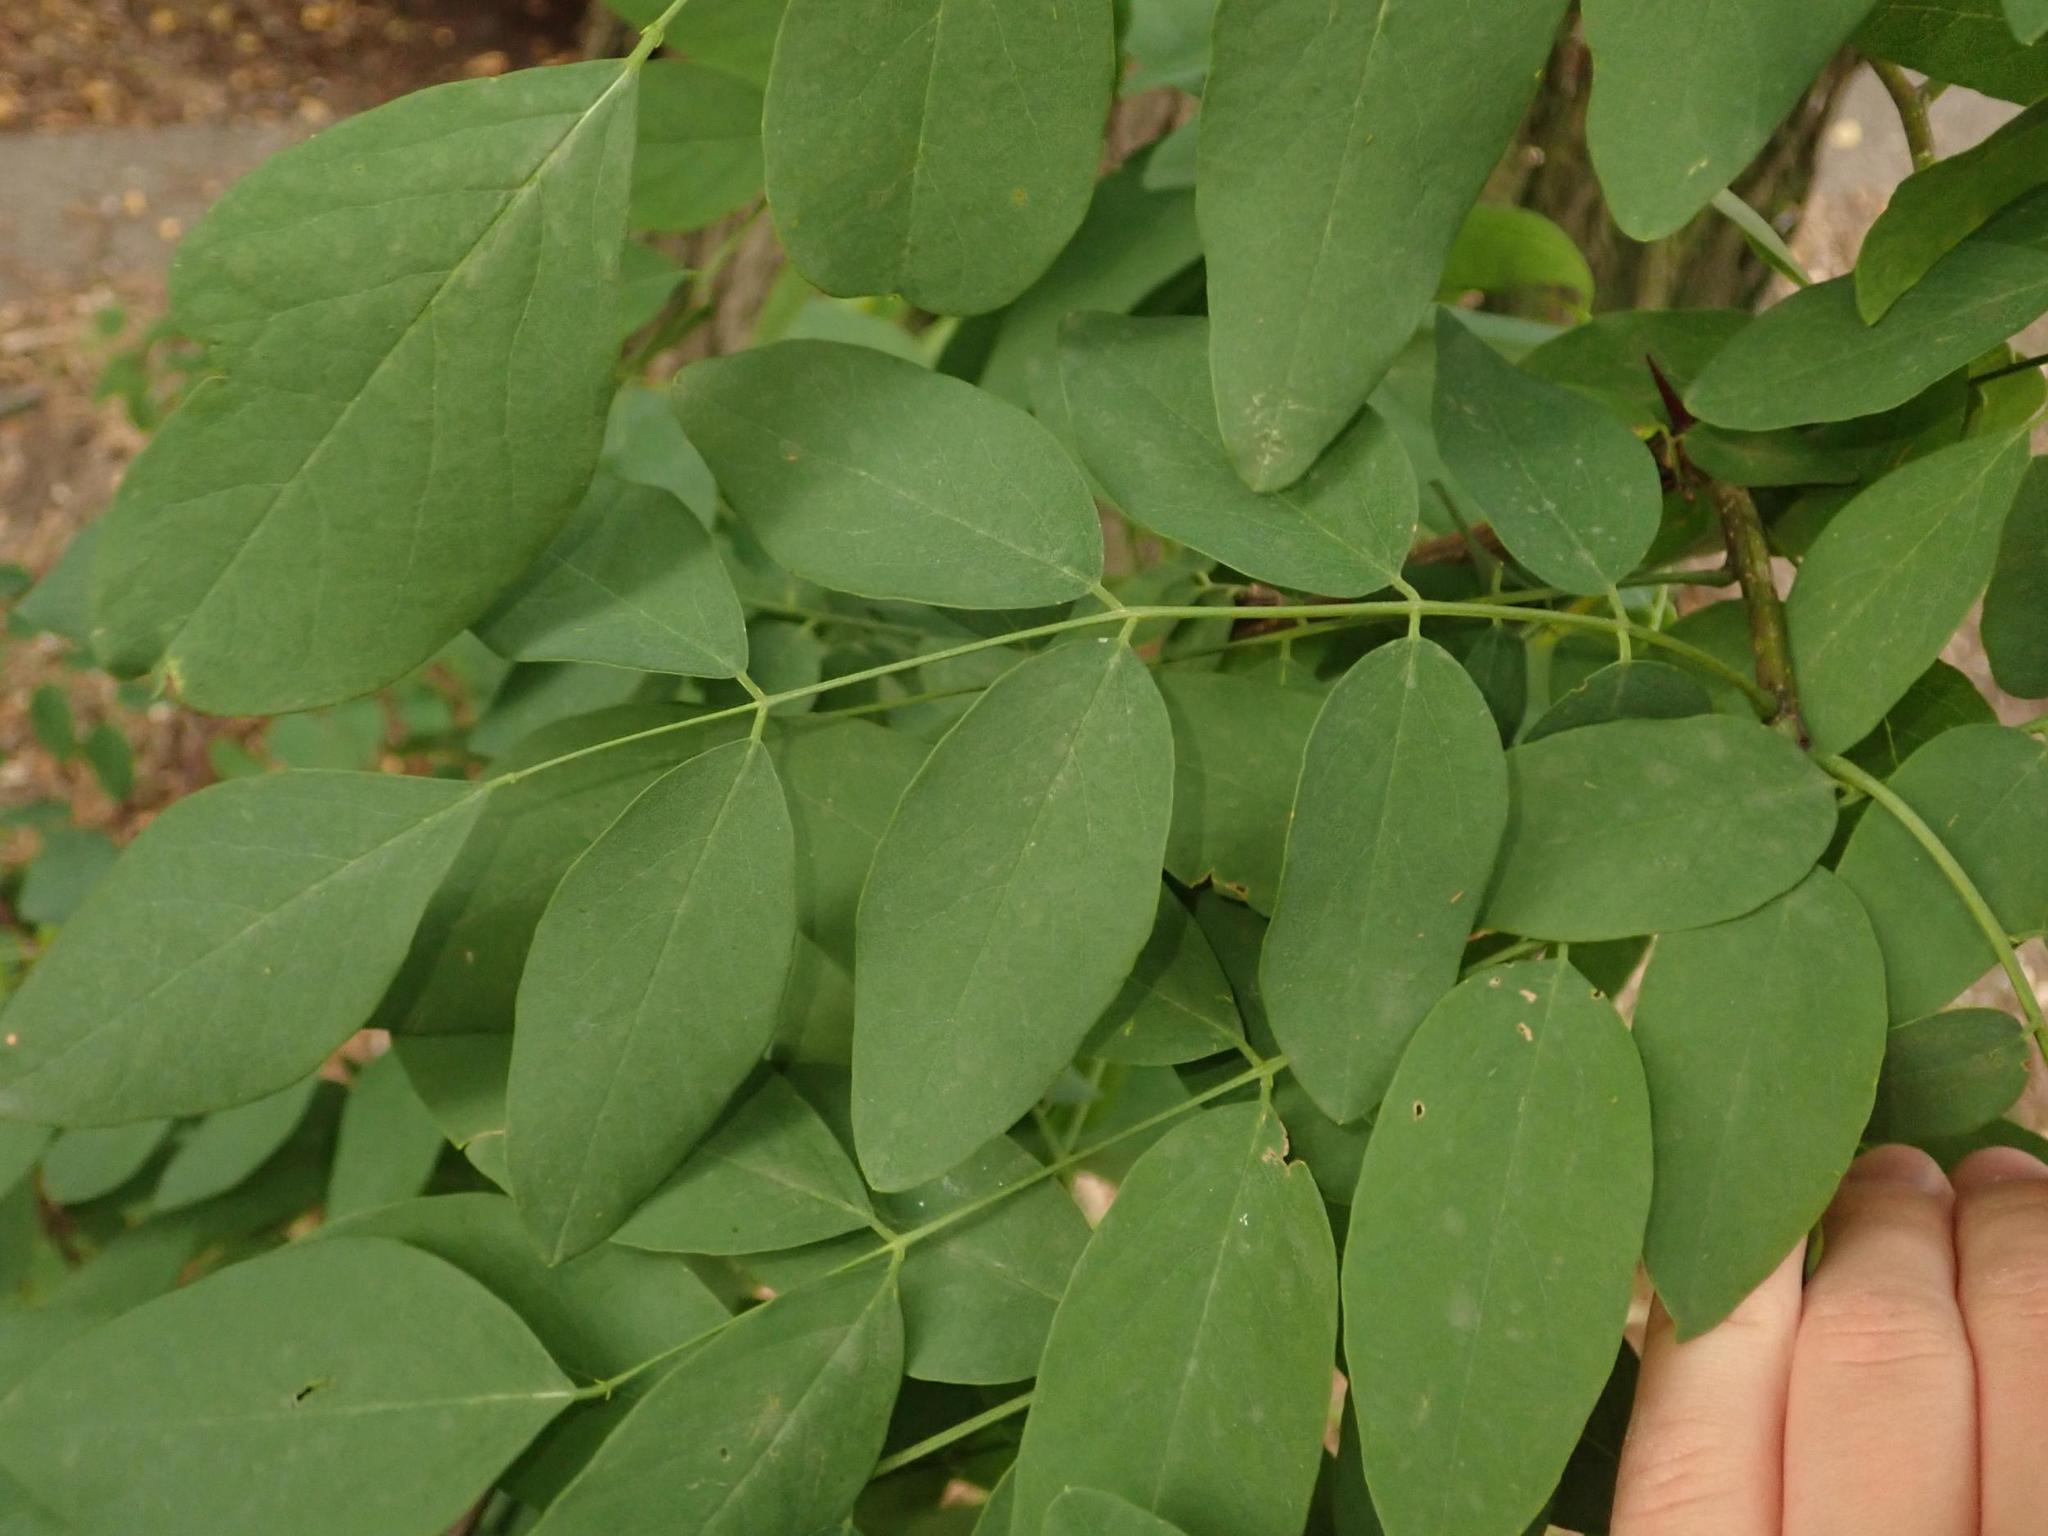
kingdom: Plantae
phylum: Tracheophyta
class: Magnoliopsida
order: Fabales
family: Fabaceae
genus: Robinia
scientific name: Robinia pseudoacacia
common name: Black locust
